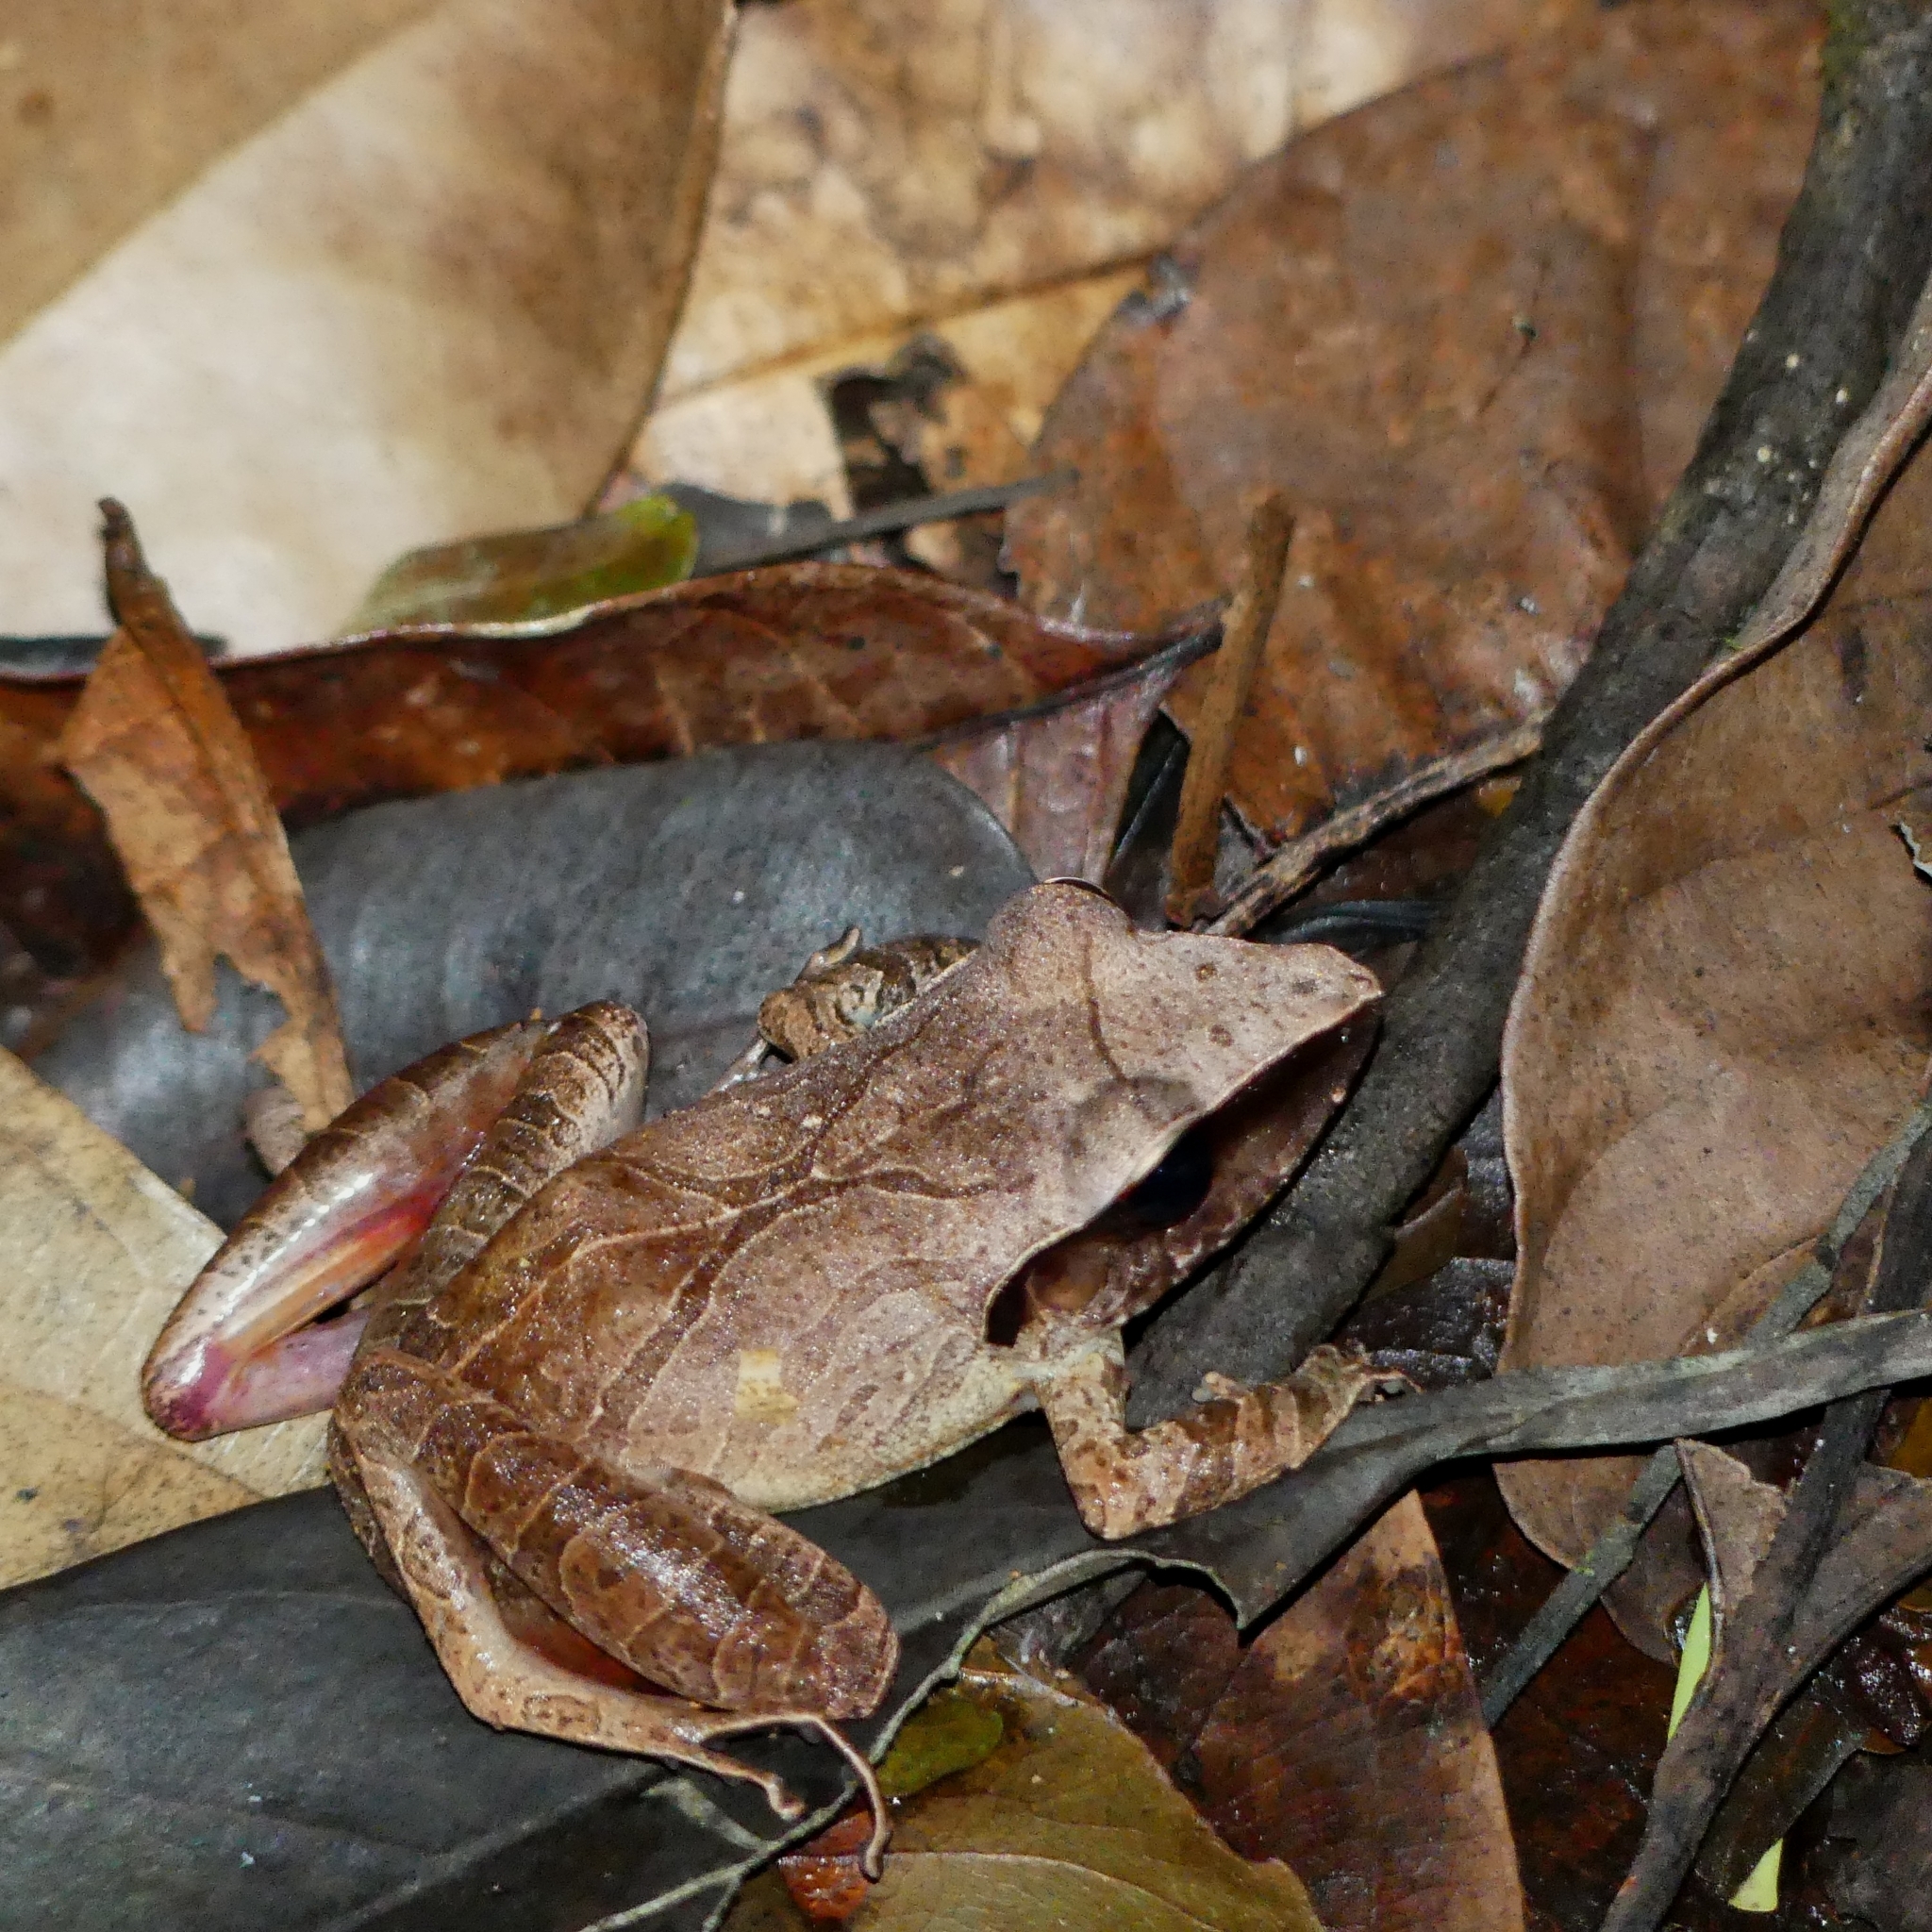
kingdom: Animalia
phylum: Chordata
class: Amphibia
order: Anura
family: Craugastoridae
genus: Pristimantis
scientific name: Pristimantis chiastonotus
